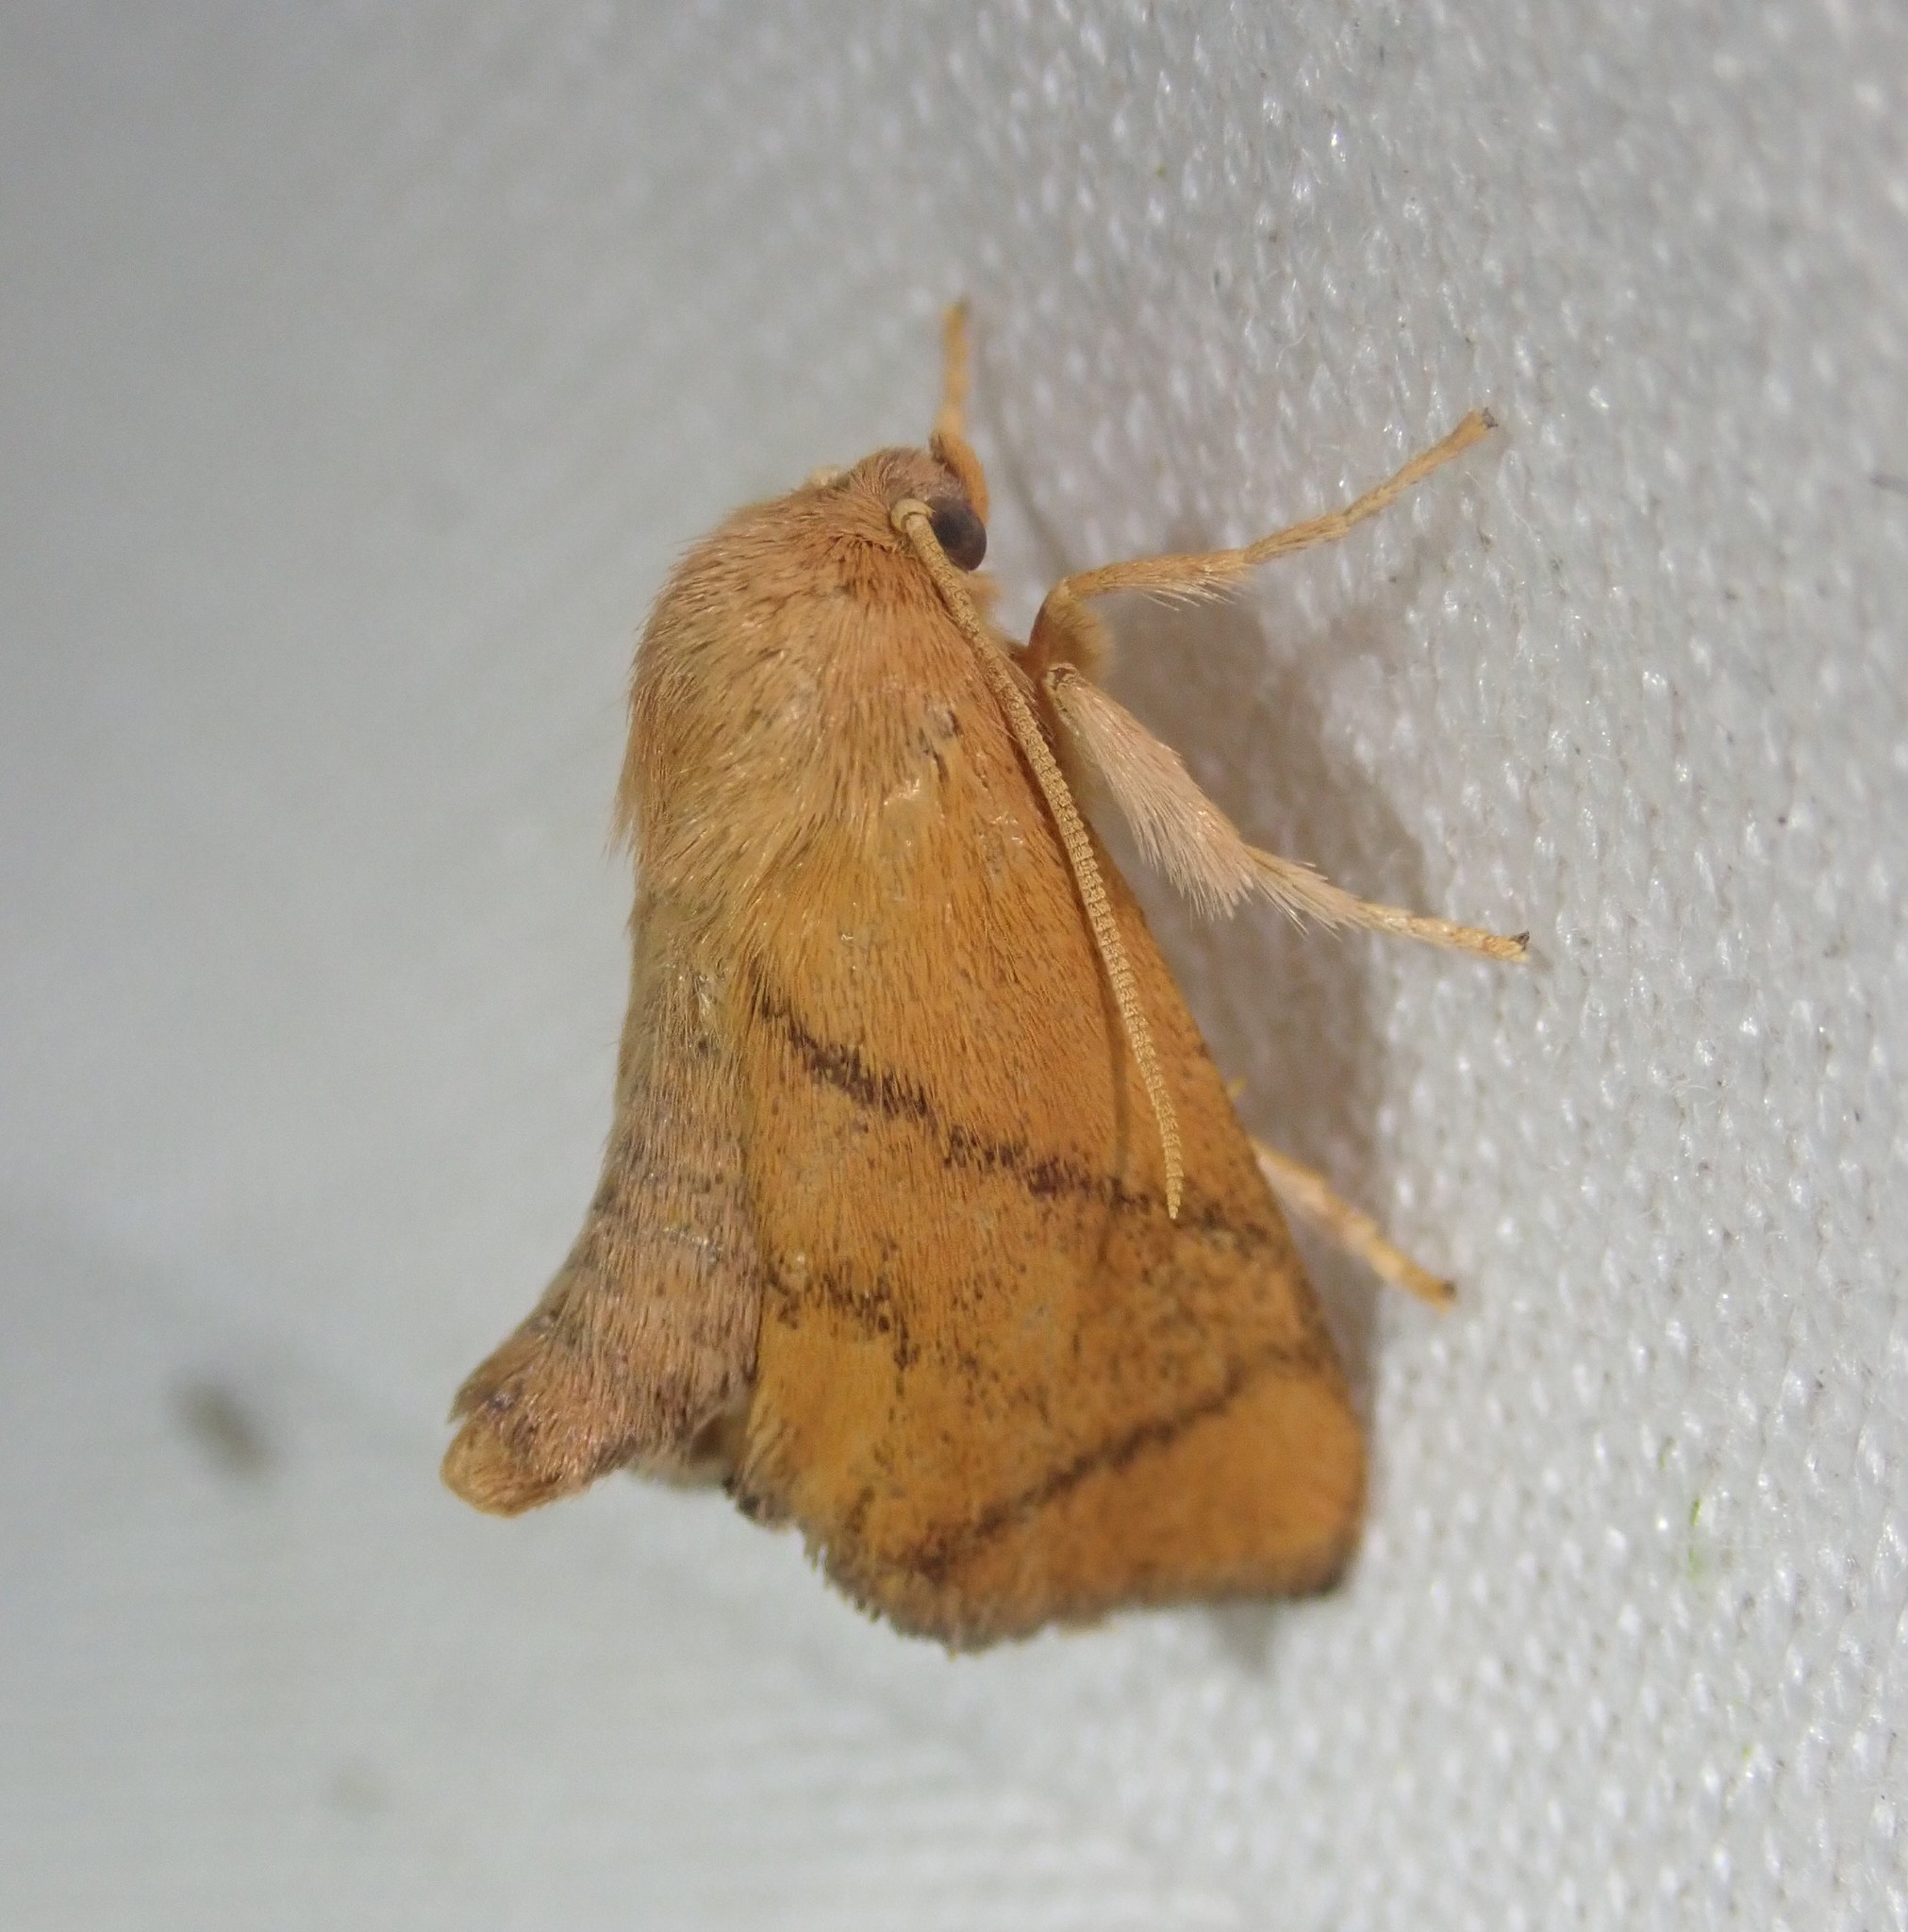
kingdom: Animalia
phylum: Arthropoda
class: Insecta
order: Lepidoptera
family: Limacodidae
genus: Apoda
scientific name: Apoda limacodes
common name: Festoon
